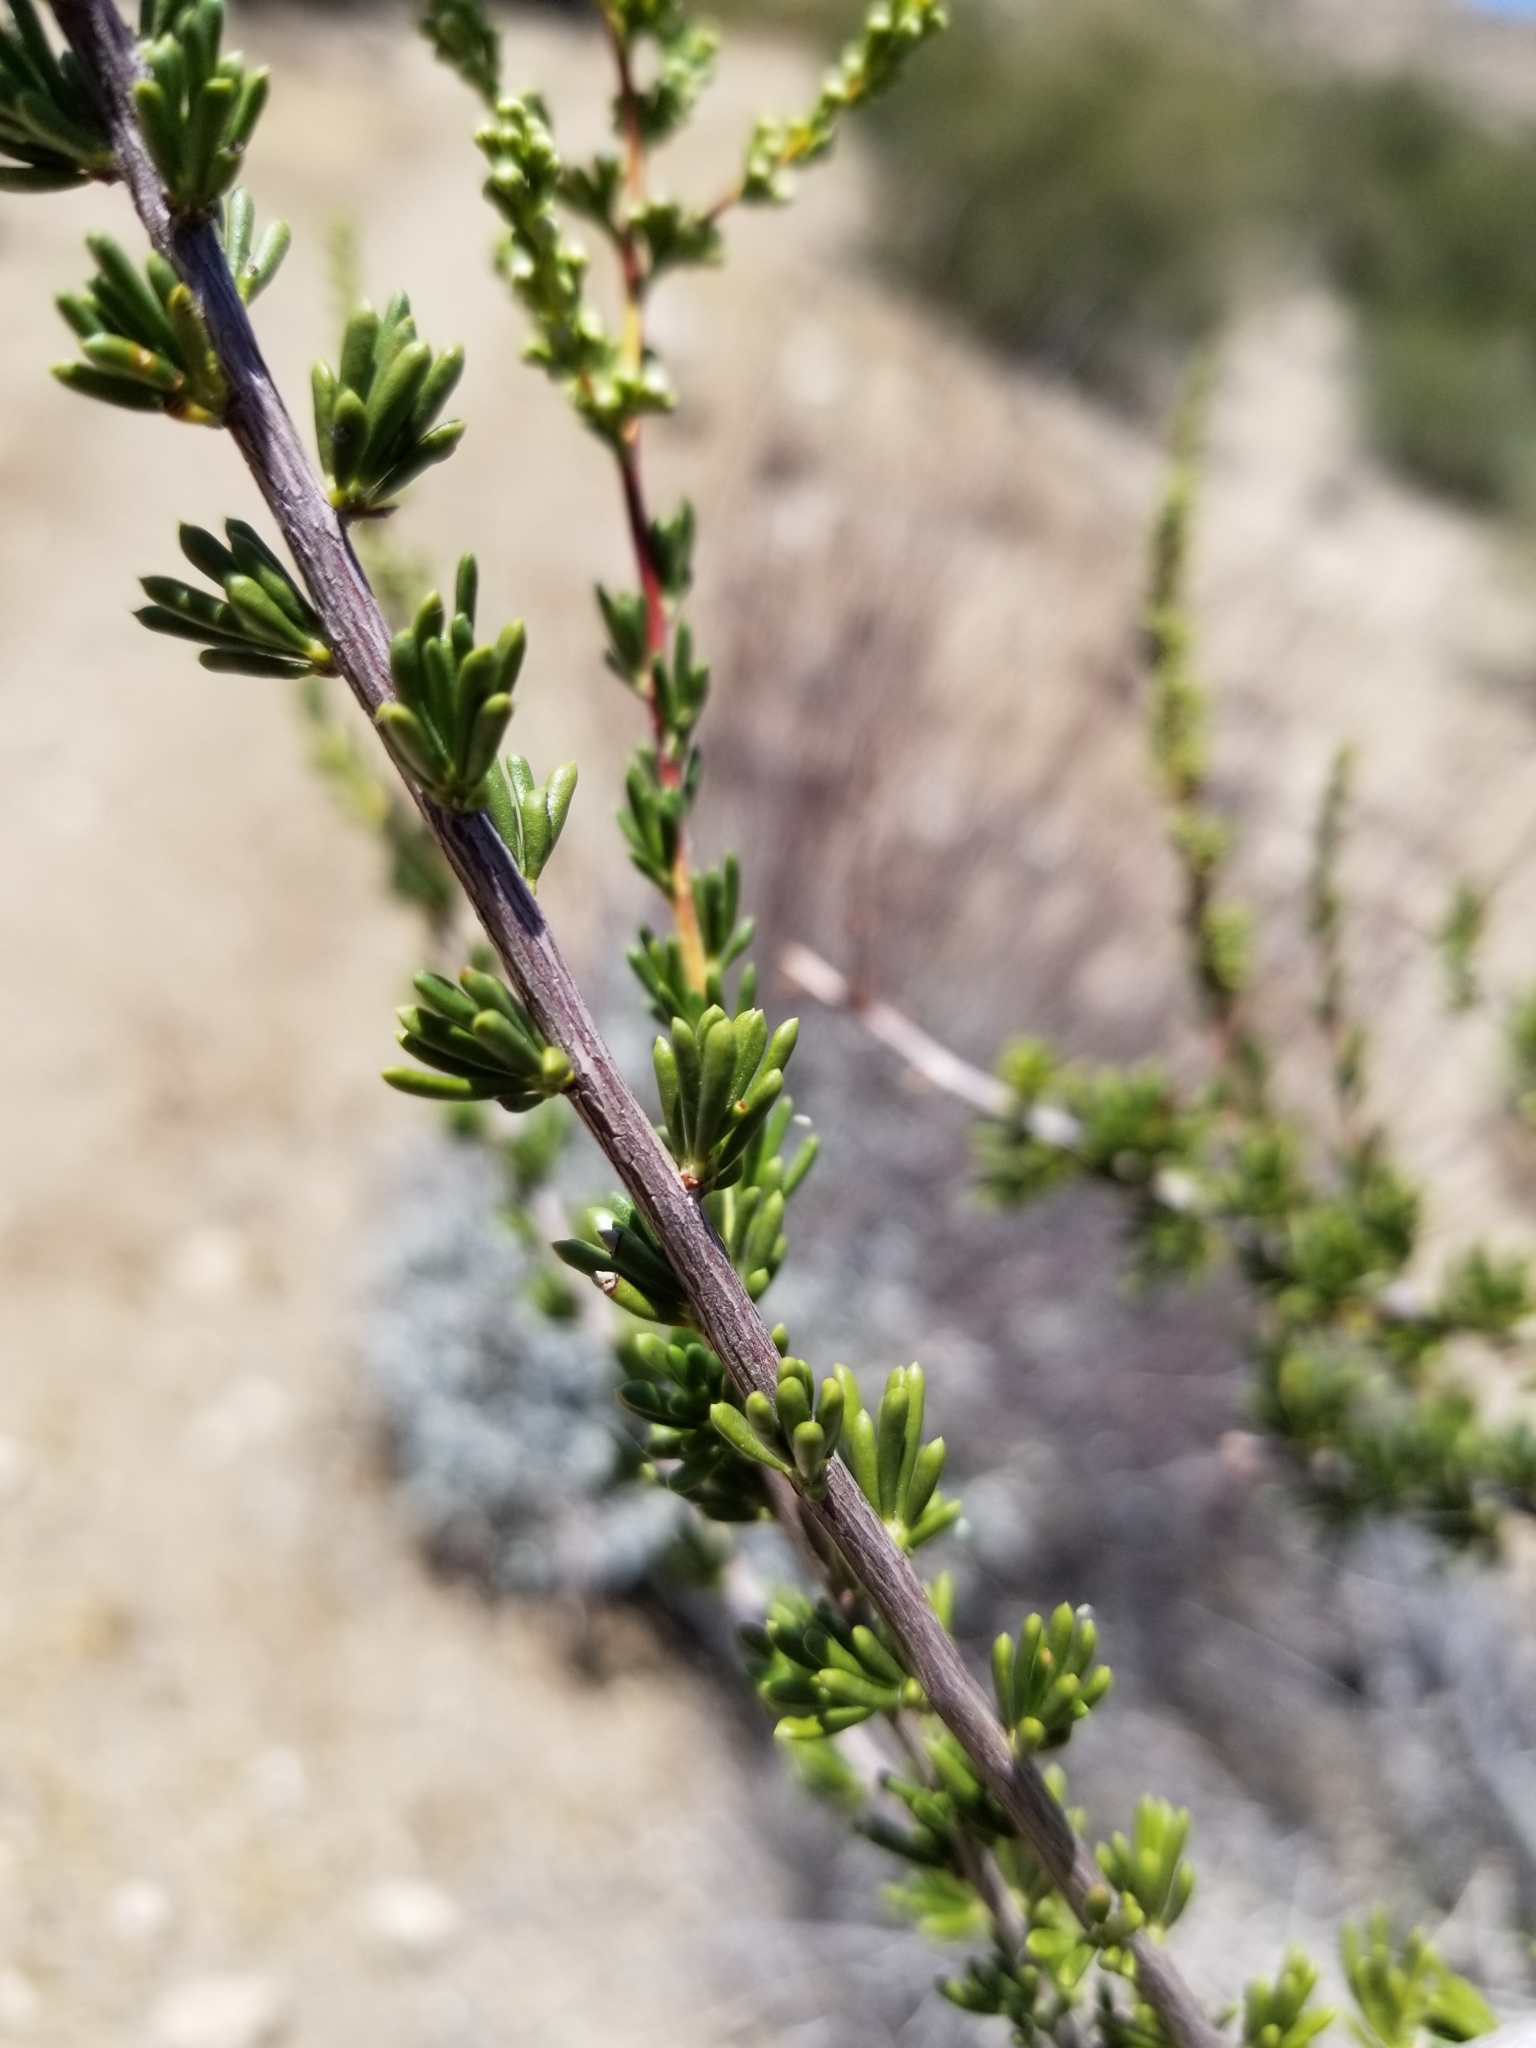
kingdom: Plantae
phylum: Tracheophyta
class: Magnoliopsida
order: Rosales
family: Rosaceae
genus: Adenostoma
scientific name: Adenostoma fasciculatum
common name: Chamise
